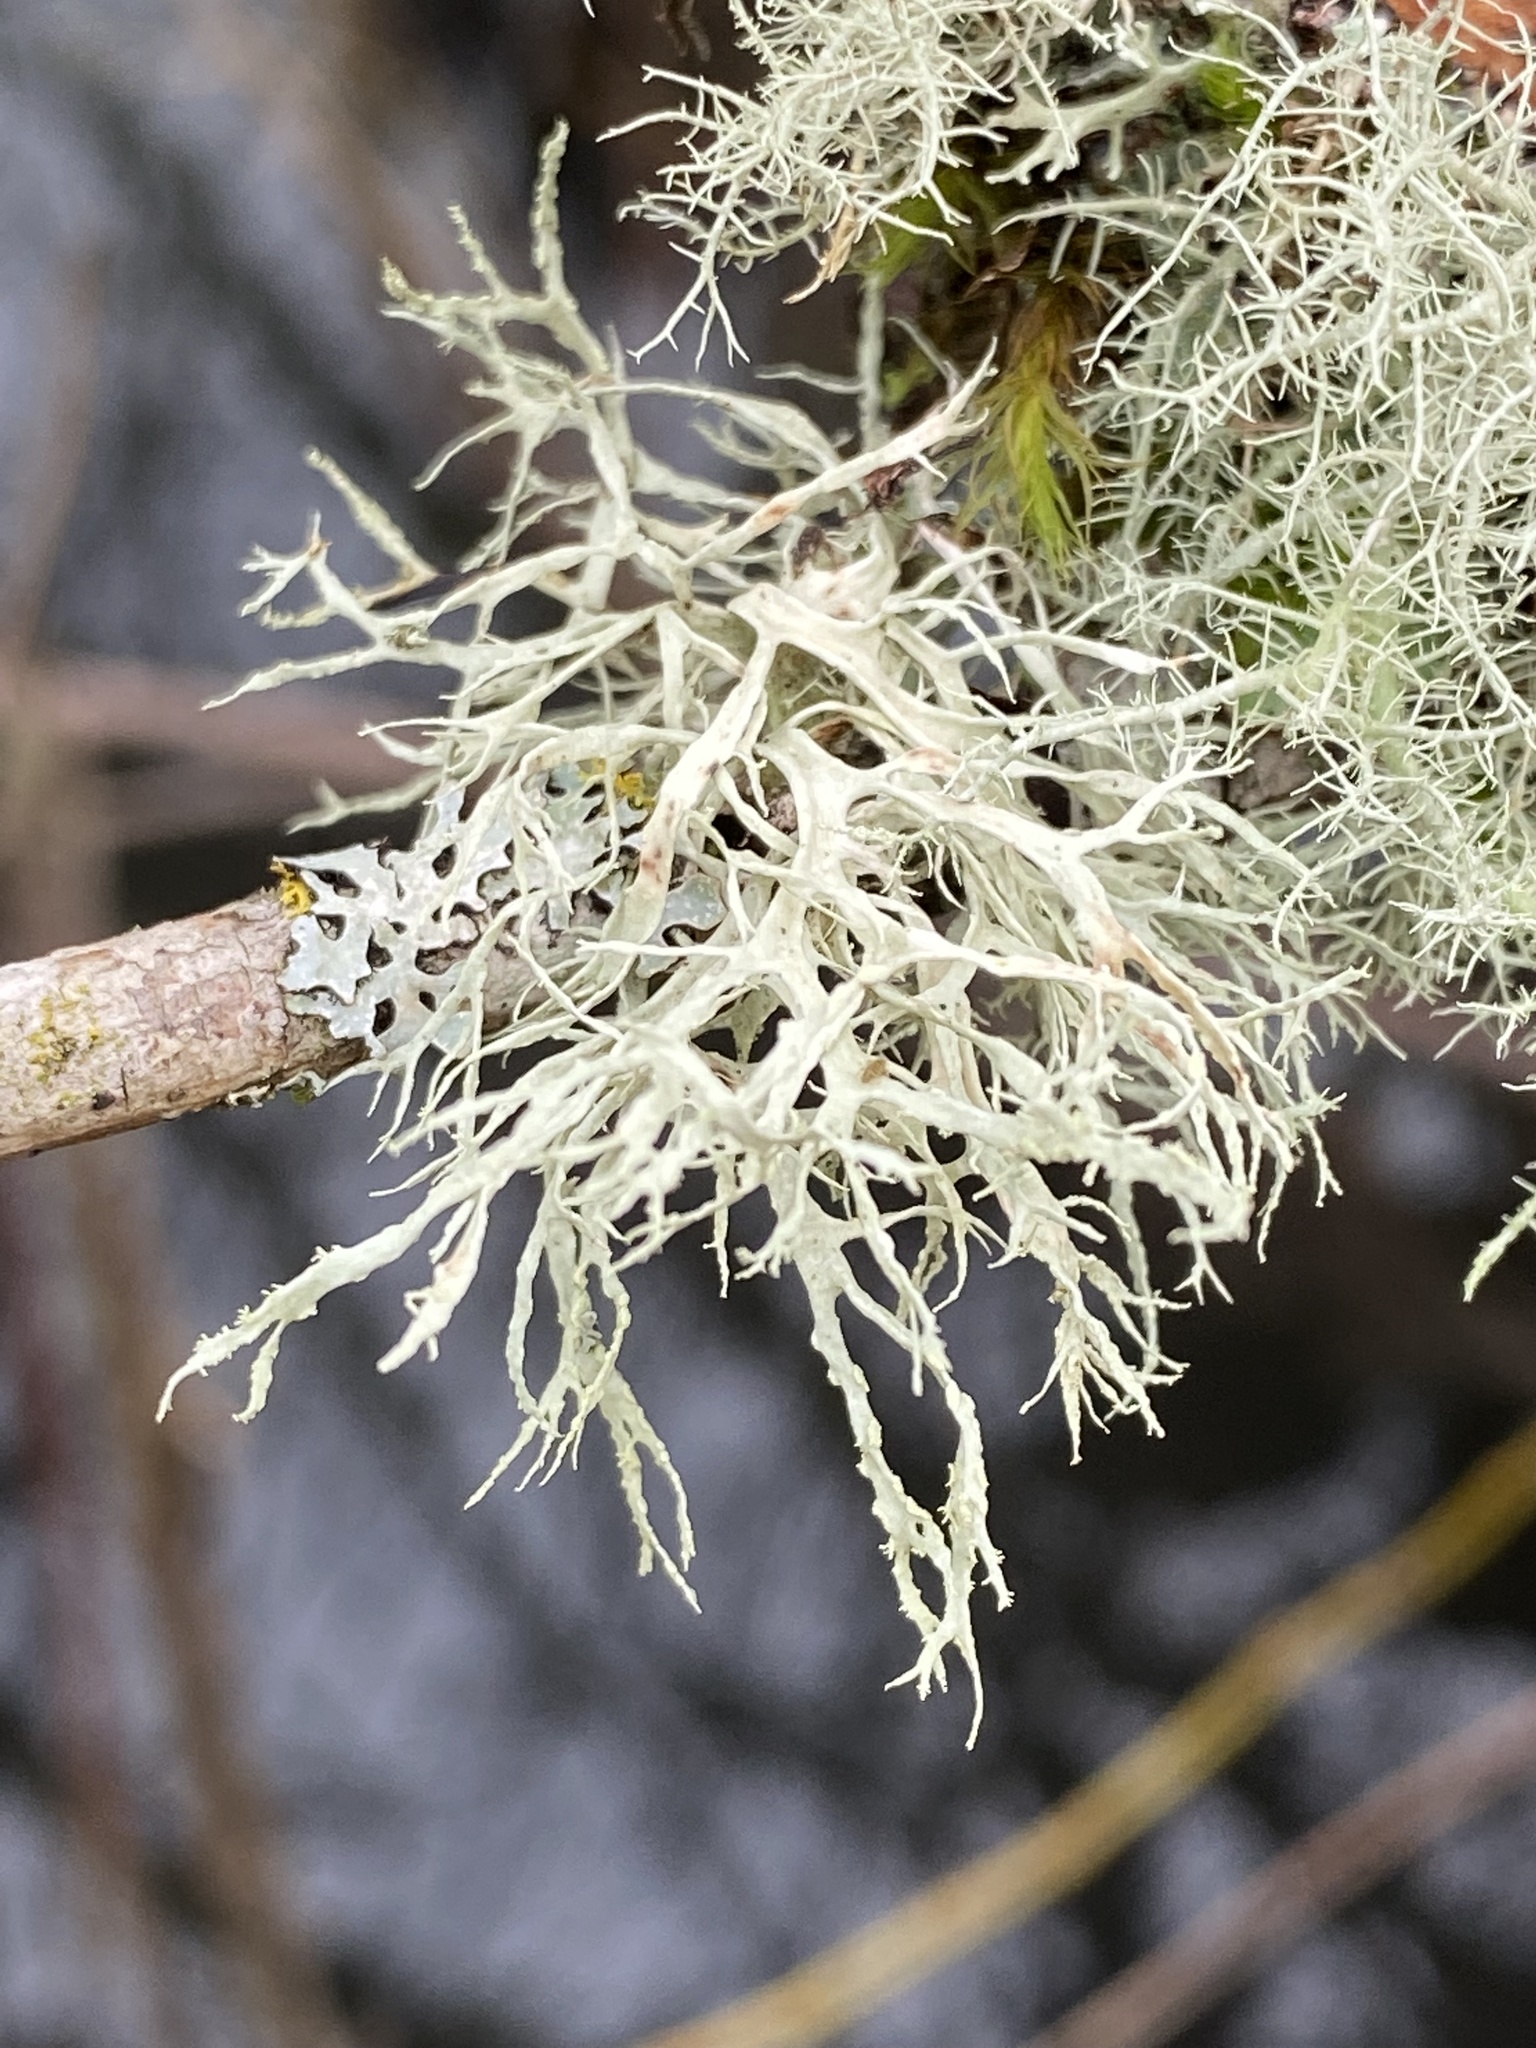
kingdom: Fungi
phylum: Ascomycota
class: Lecanoromycetes
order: Lecanorales
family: Ramalinaceae
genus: Ramalina
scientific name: Ramalina farinacea
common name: Farinose cartilage lichen
